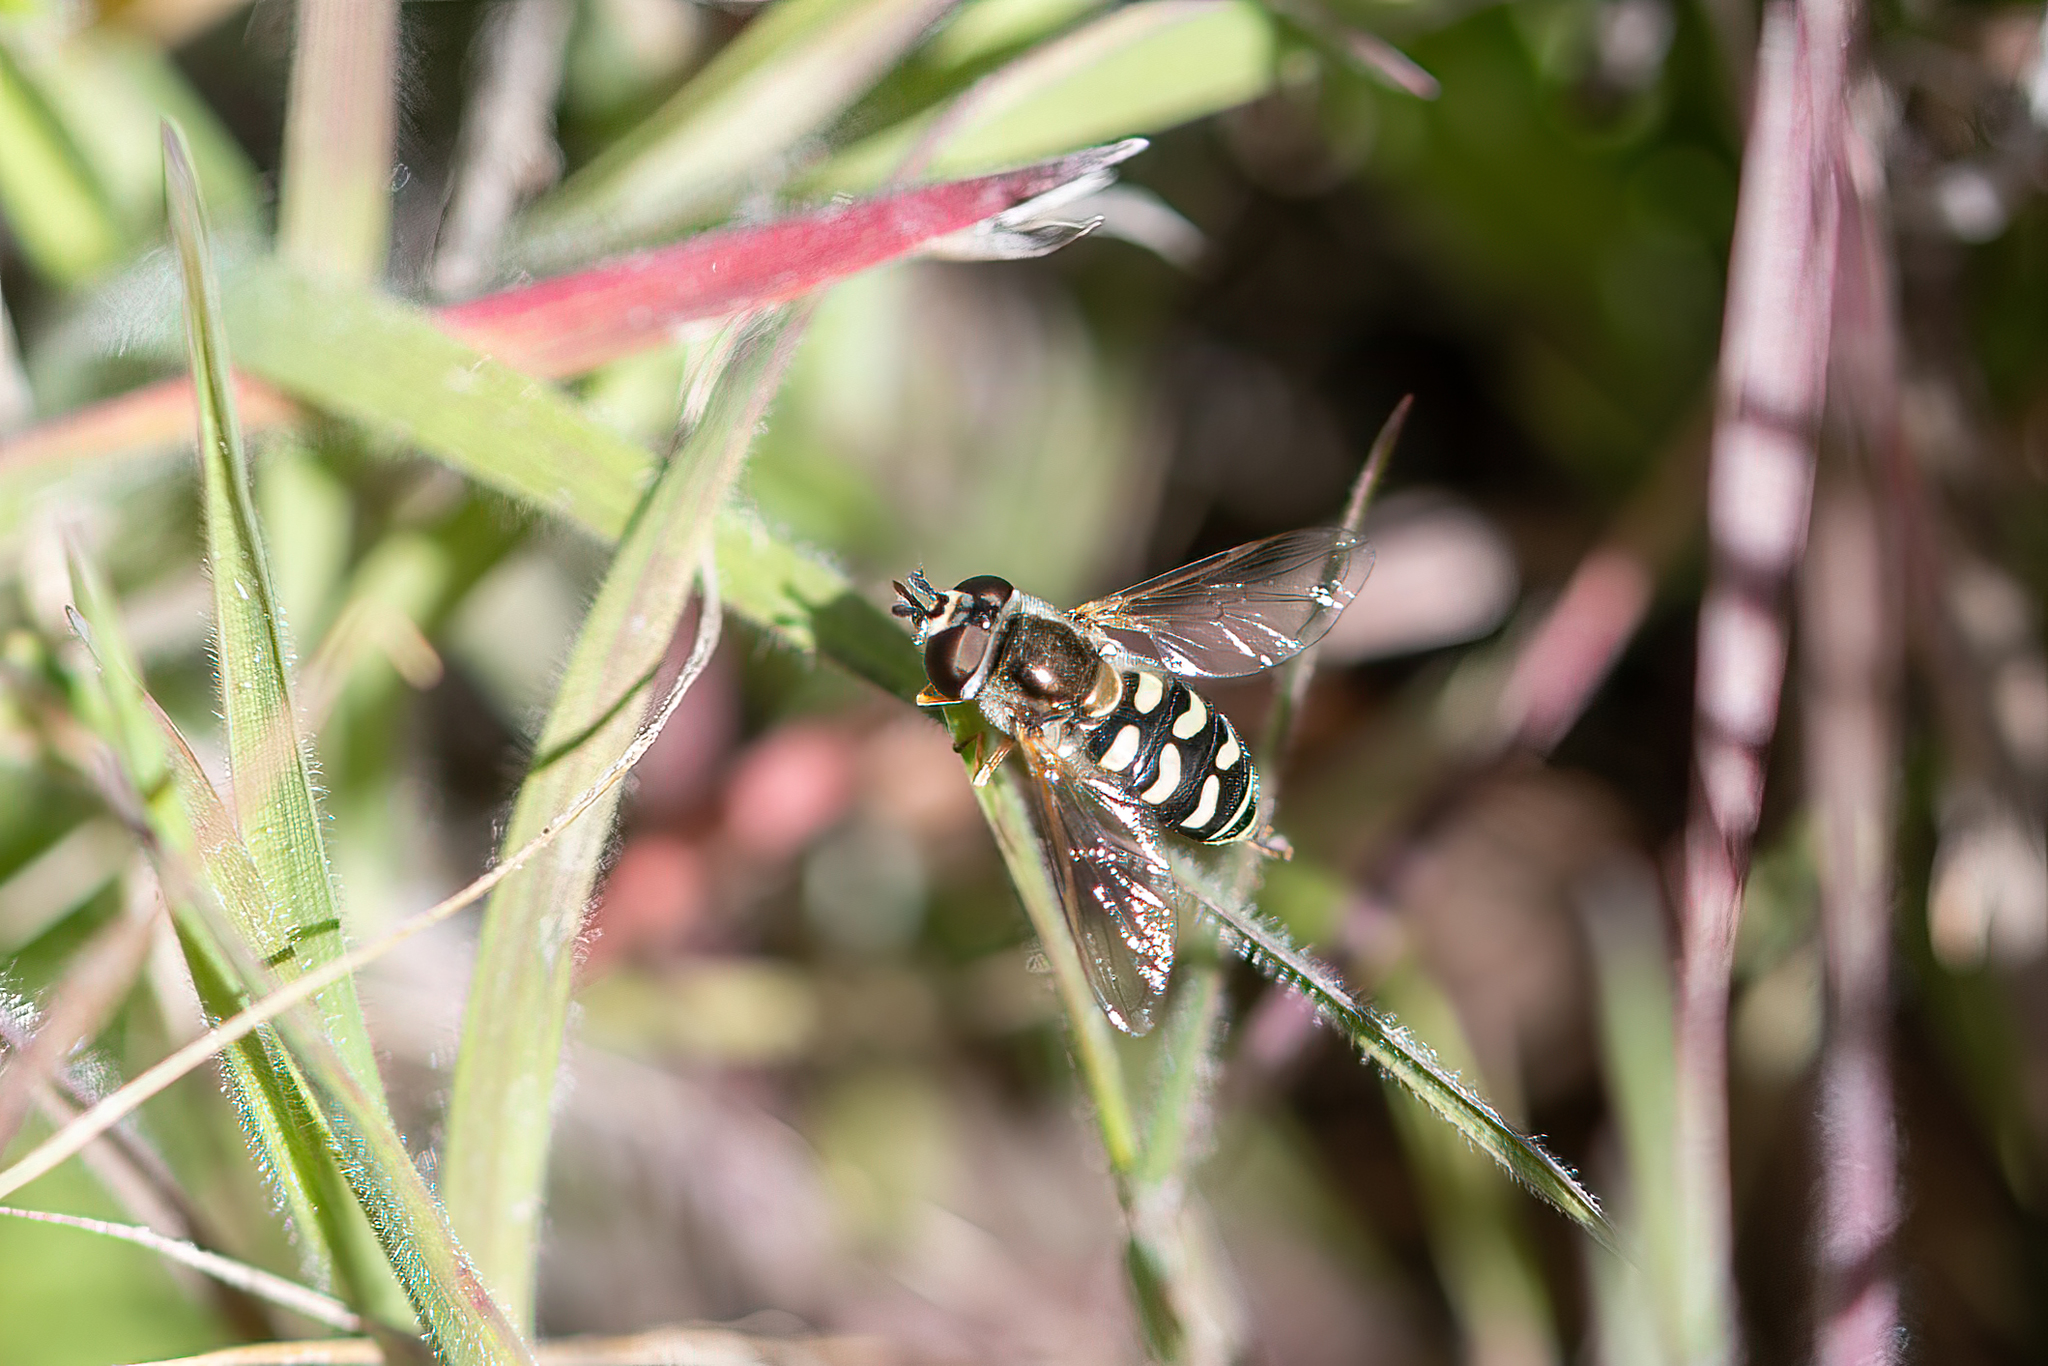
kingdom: Animalia
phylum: Arthropoda
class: Insecta
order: Diptera
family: Syrphidae
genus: Eupeodes
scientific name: Eupeodes volucris
